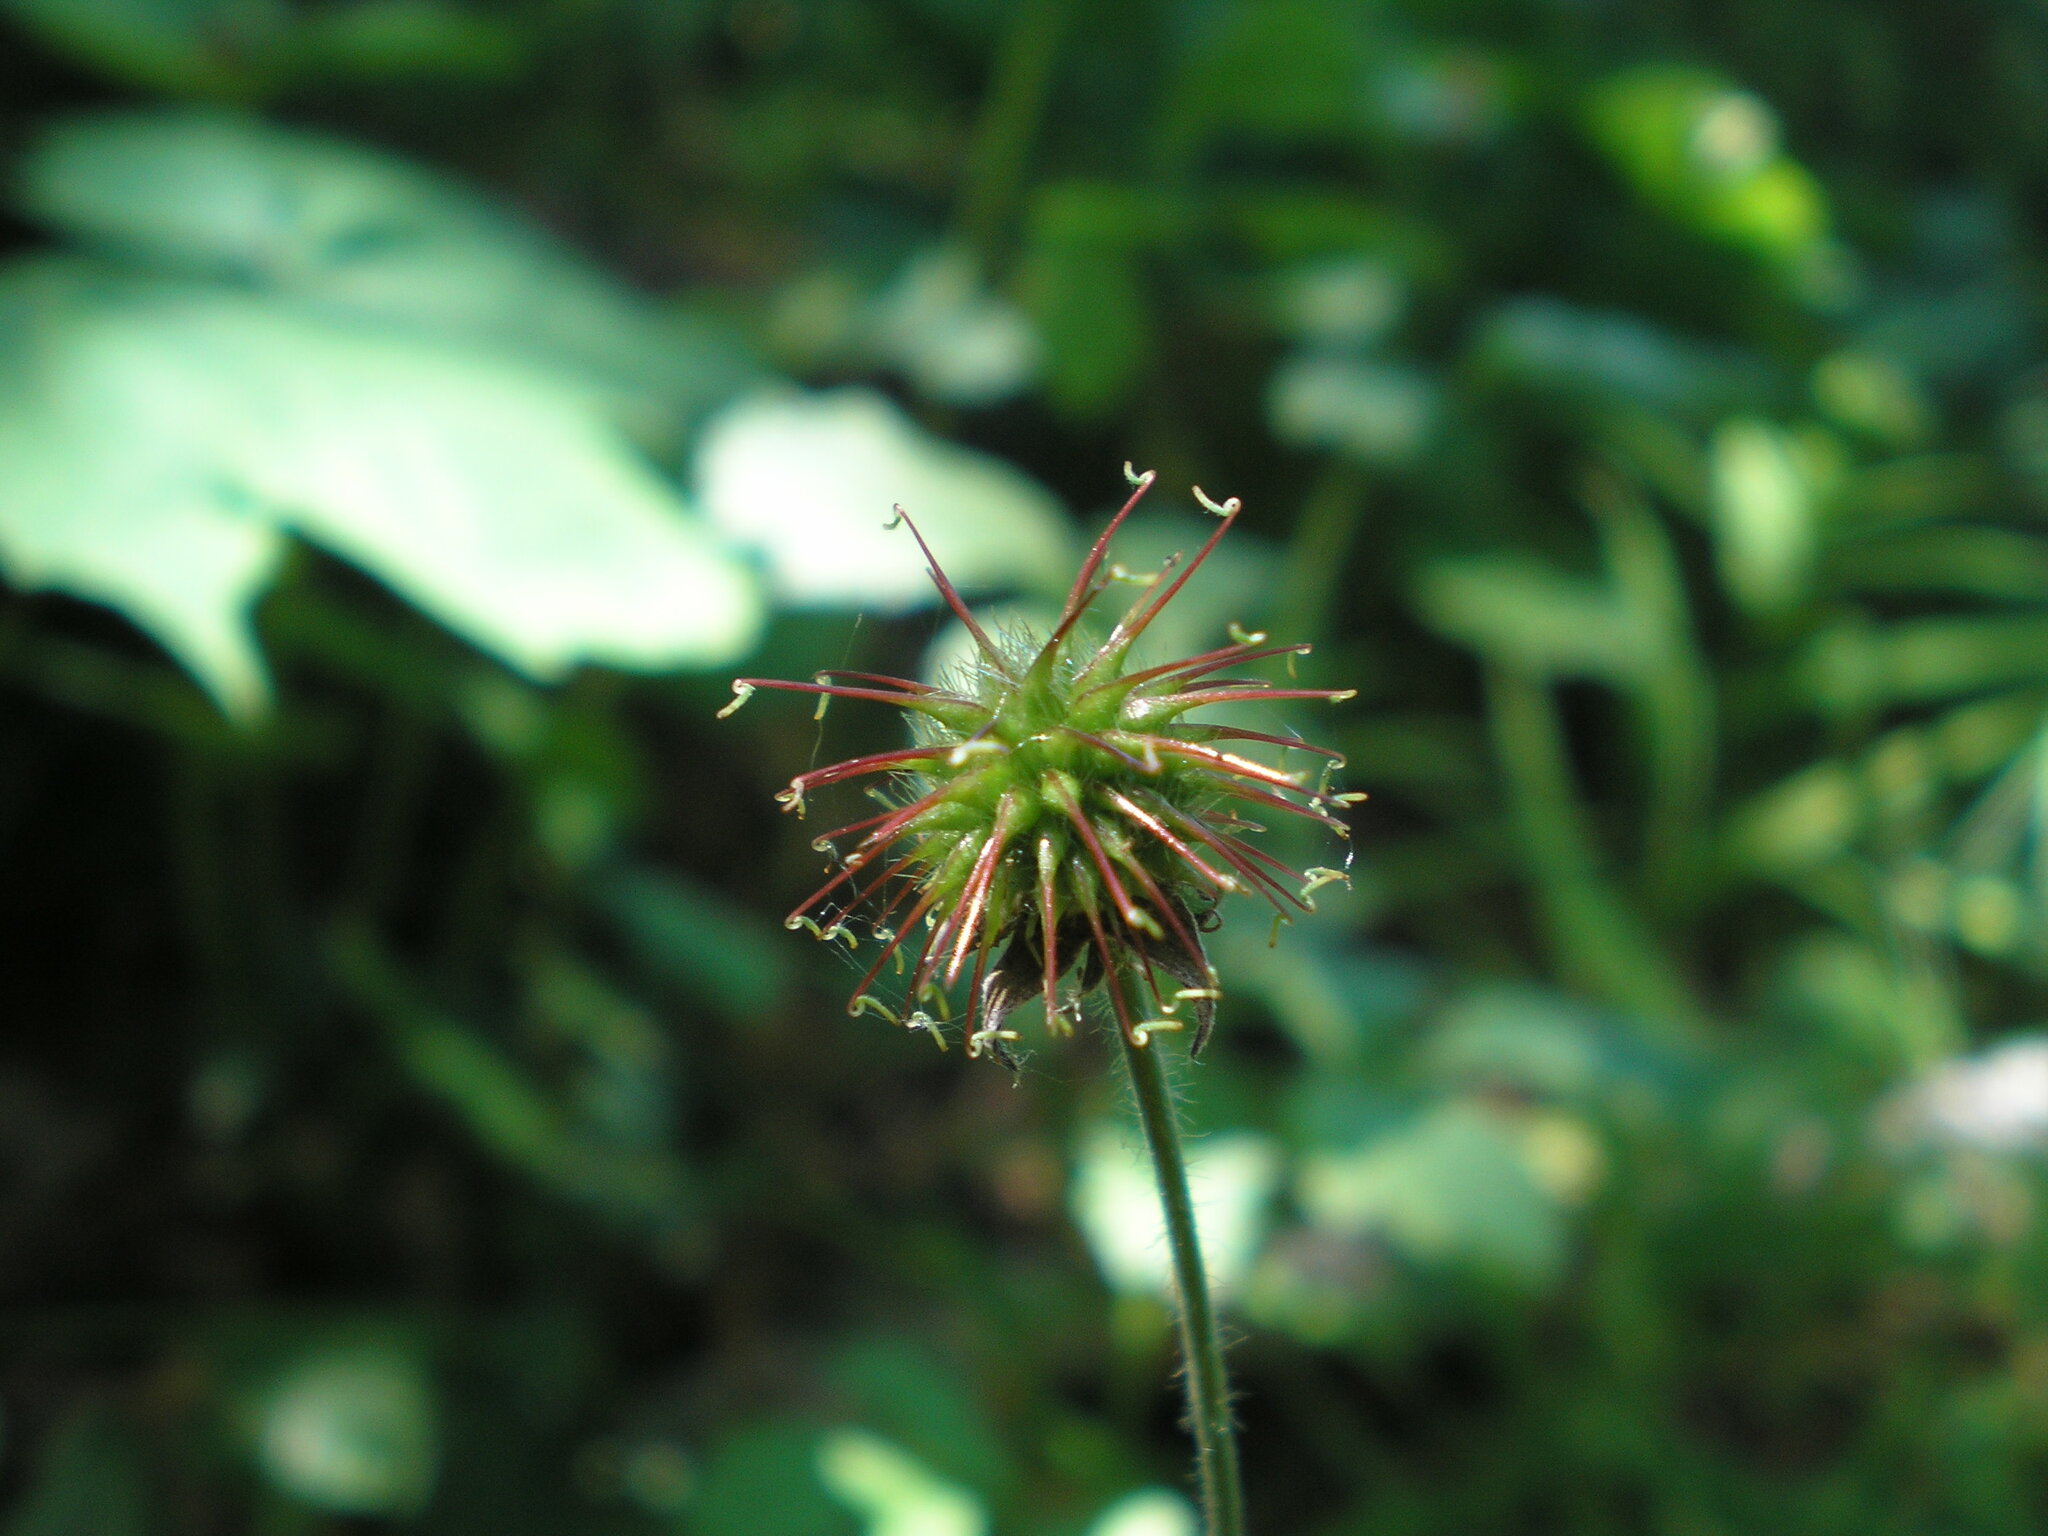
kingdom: Plantae
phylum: Tracheophyta
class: Magnoliopsida
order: Rosales
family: Rosaceae
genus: Geum
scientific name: Geum urbanum
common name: Wood avens
